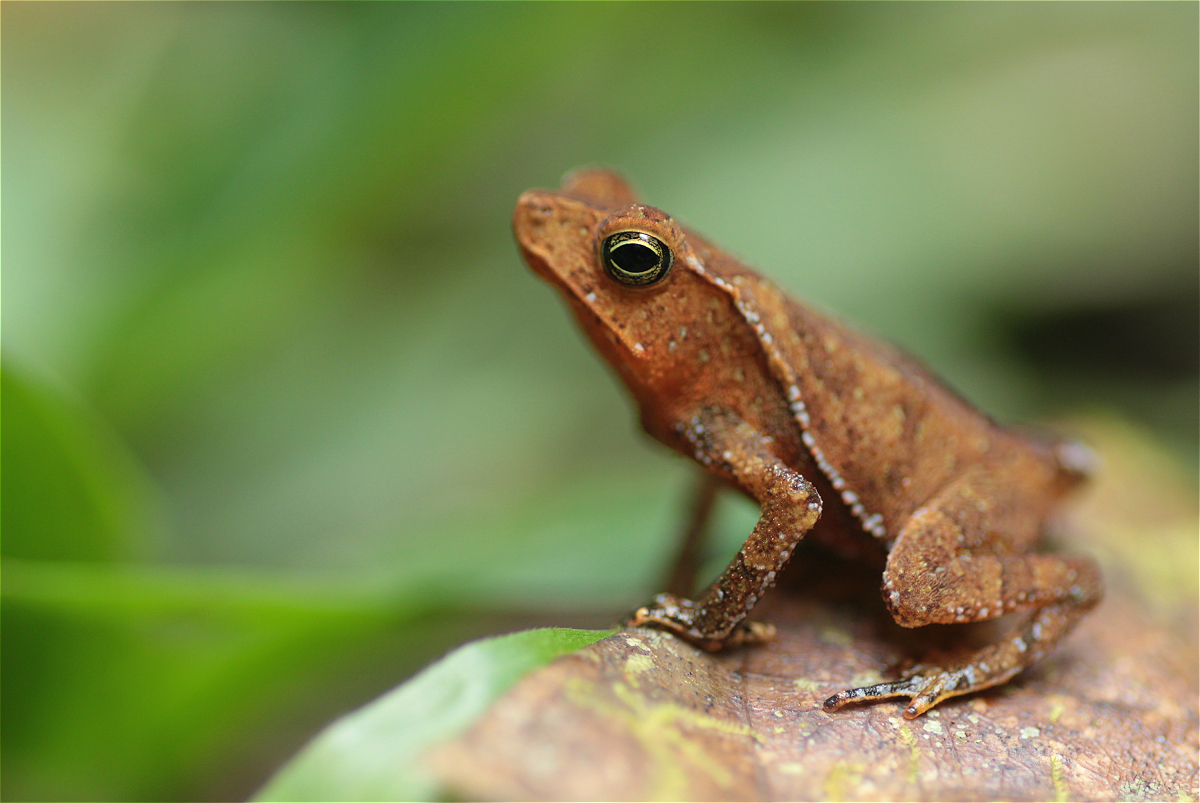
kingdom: Animalia
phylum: Chordata
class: Amphibia
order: Anura
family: Bufonidae
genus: Rhinella
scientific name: Rhinella margaritifera
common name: Mitred toad
